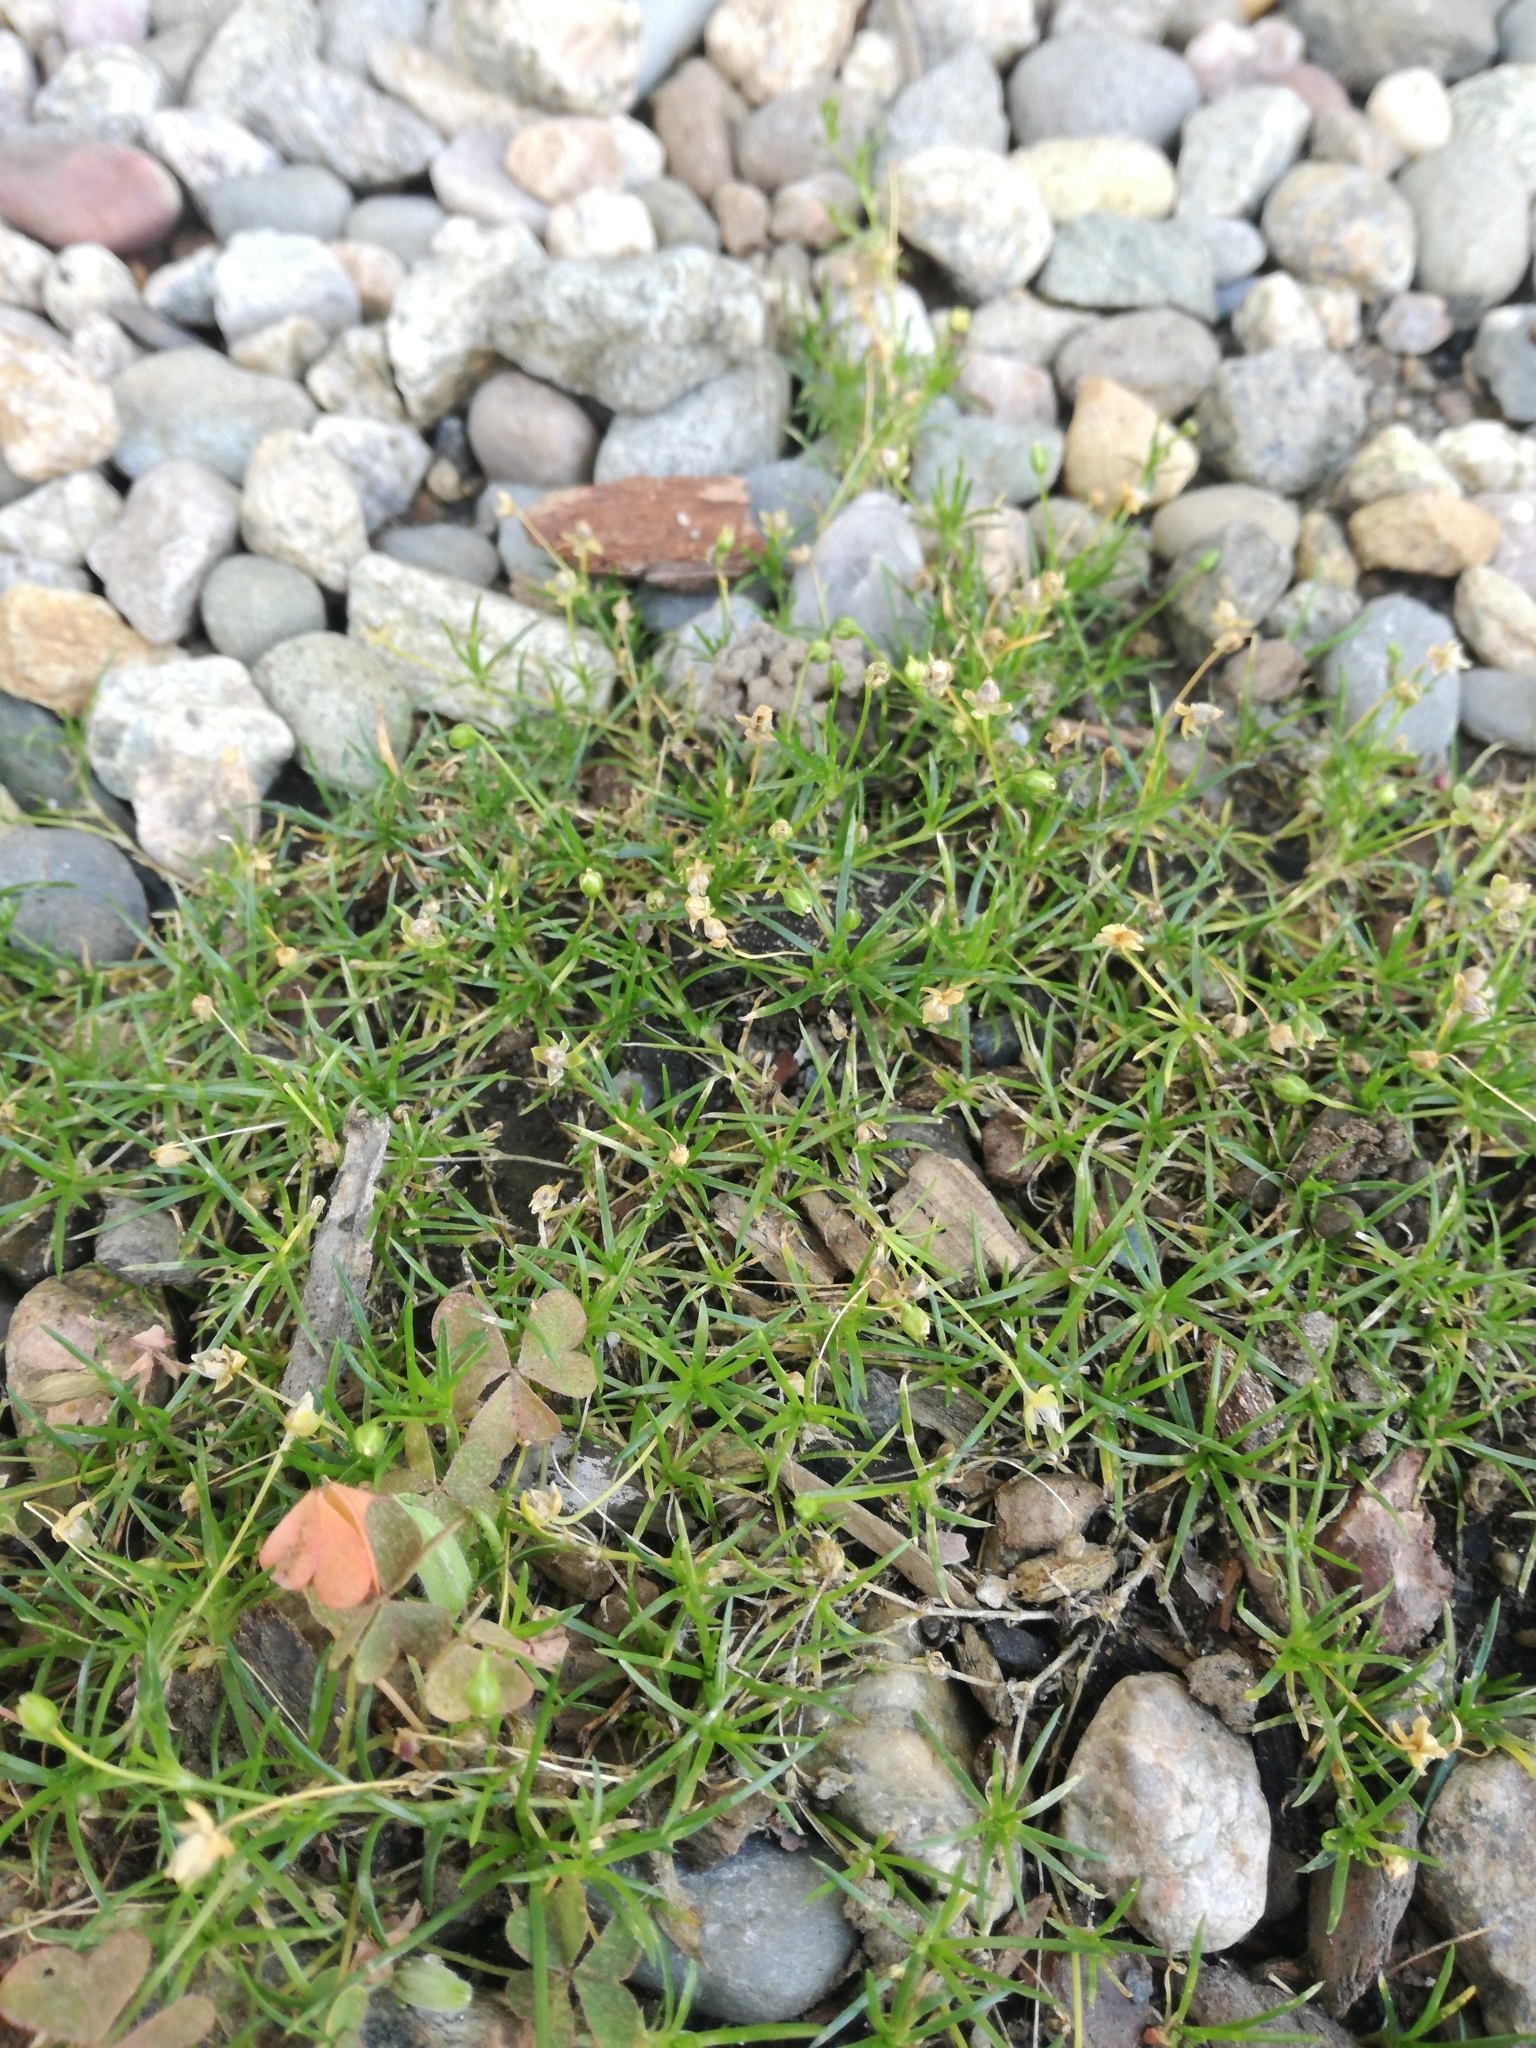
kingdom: Plantae
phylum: Tracheophyta
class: Magnoliopsida
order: Caryophyllales
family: Caryophyllaceae
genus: Sagina
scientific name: Sagina procumbens
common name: Procumbent pearlwort
